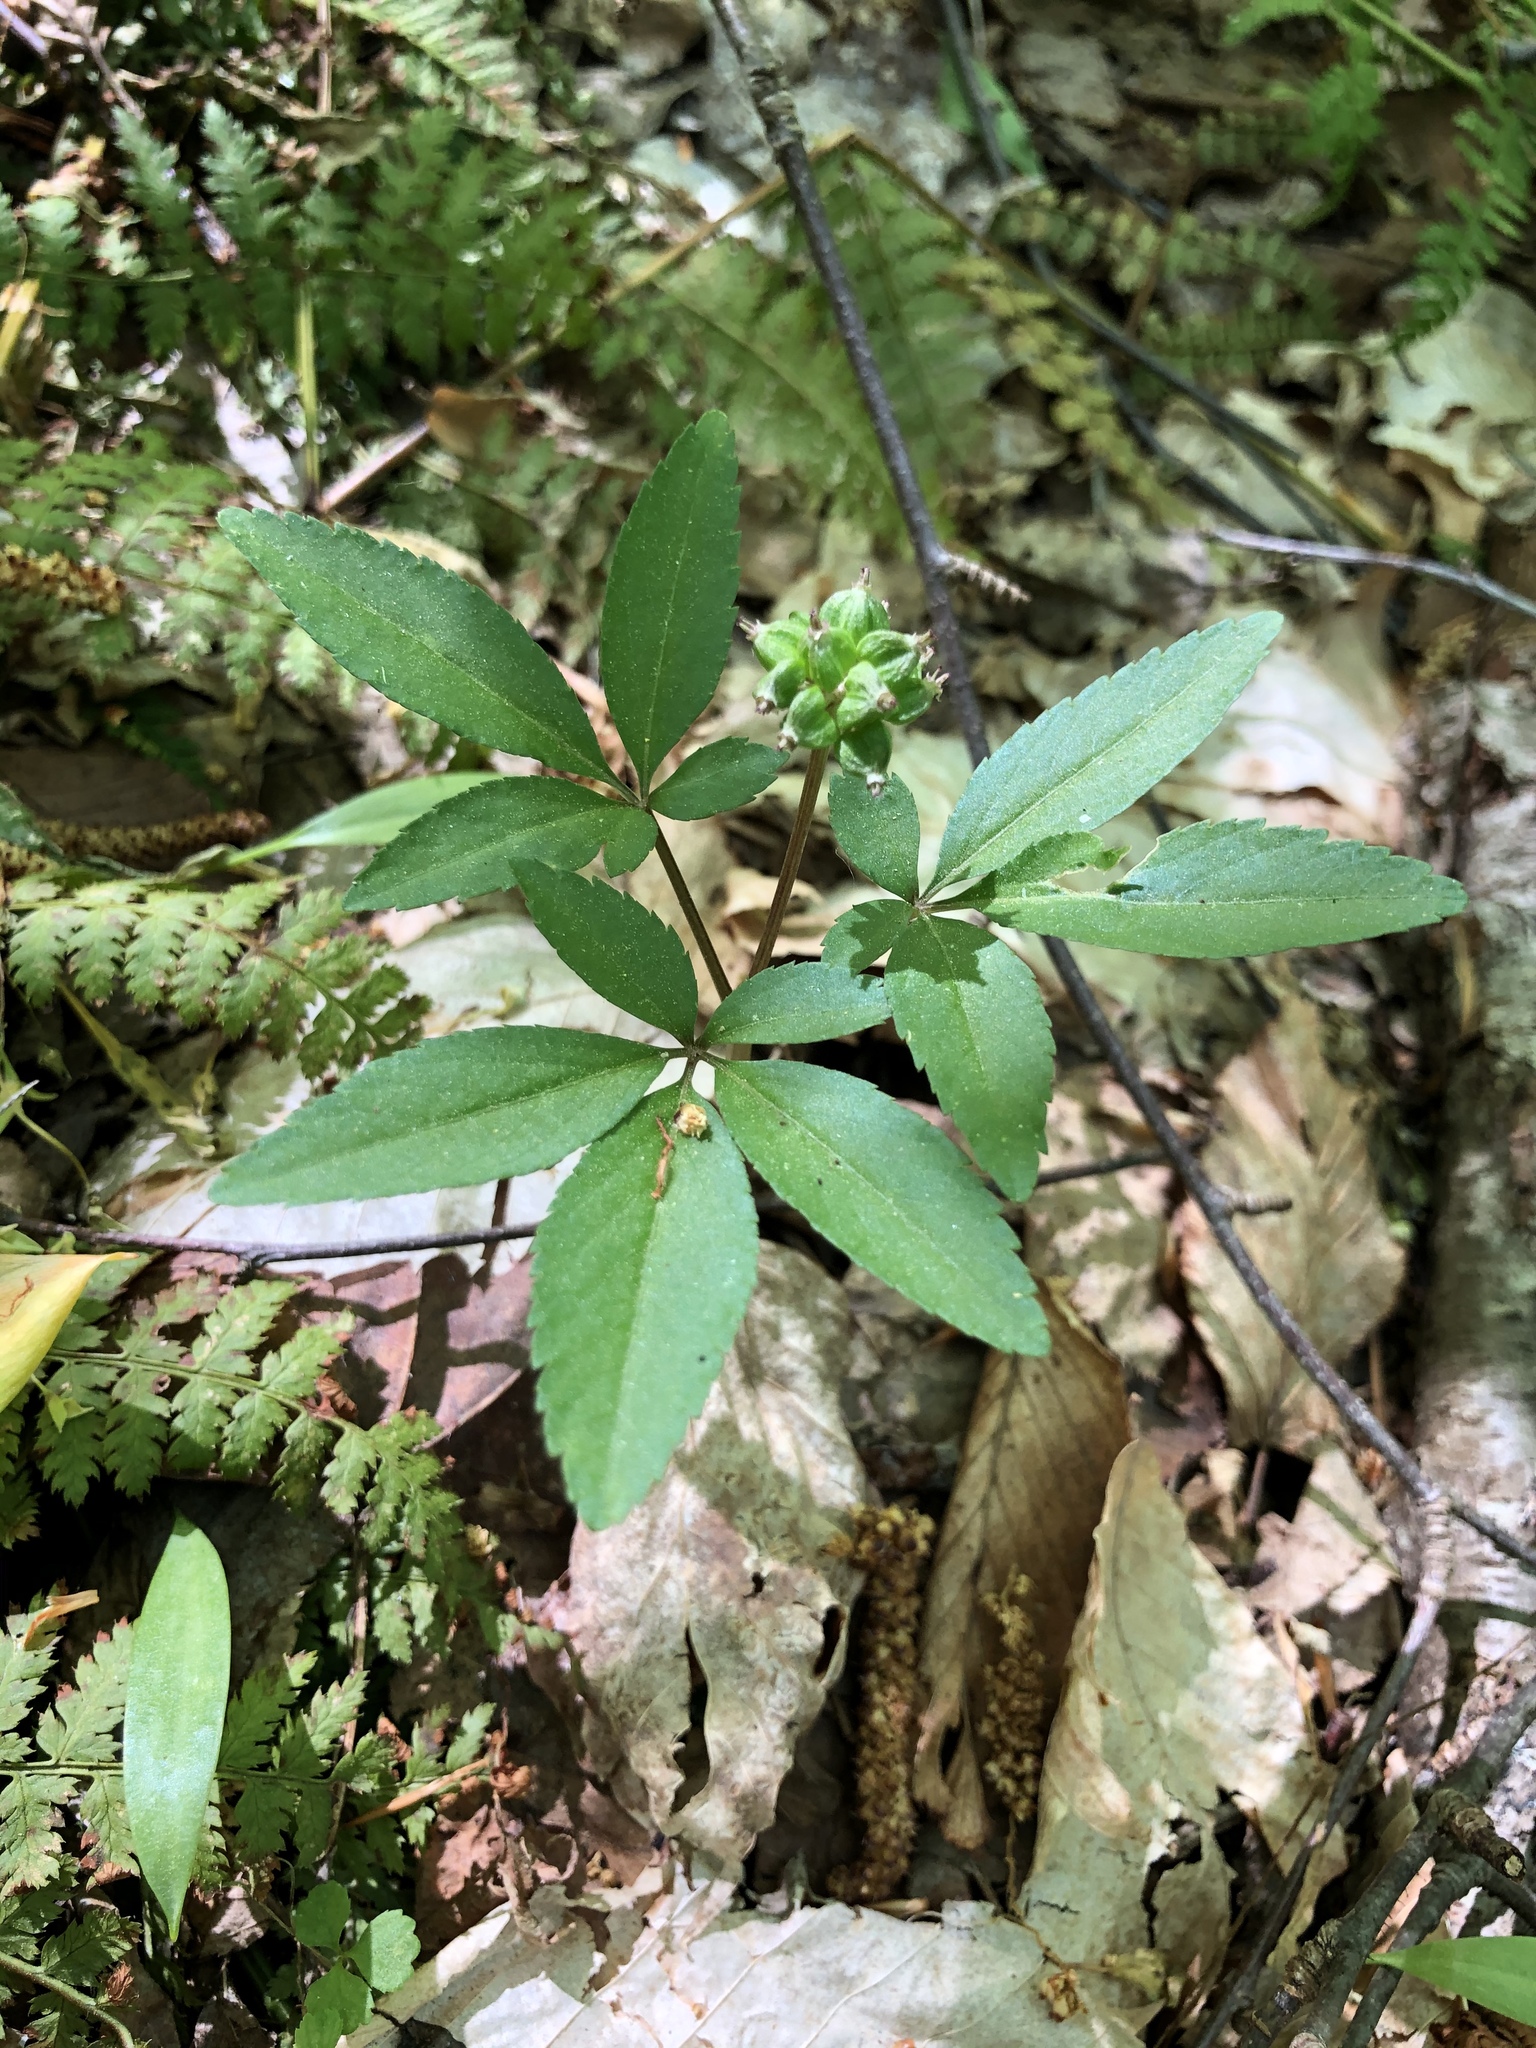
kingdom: Plantae
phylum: Tracheophyta
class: Magnoliopsida
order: Apiales
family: Araliaceae
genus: Panax
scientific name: Panax trifolius
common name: Dwarf ginseng
